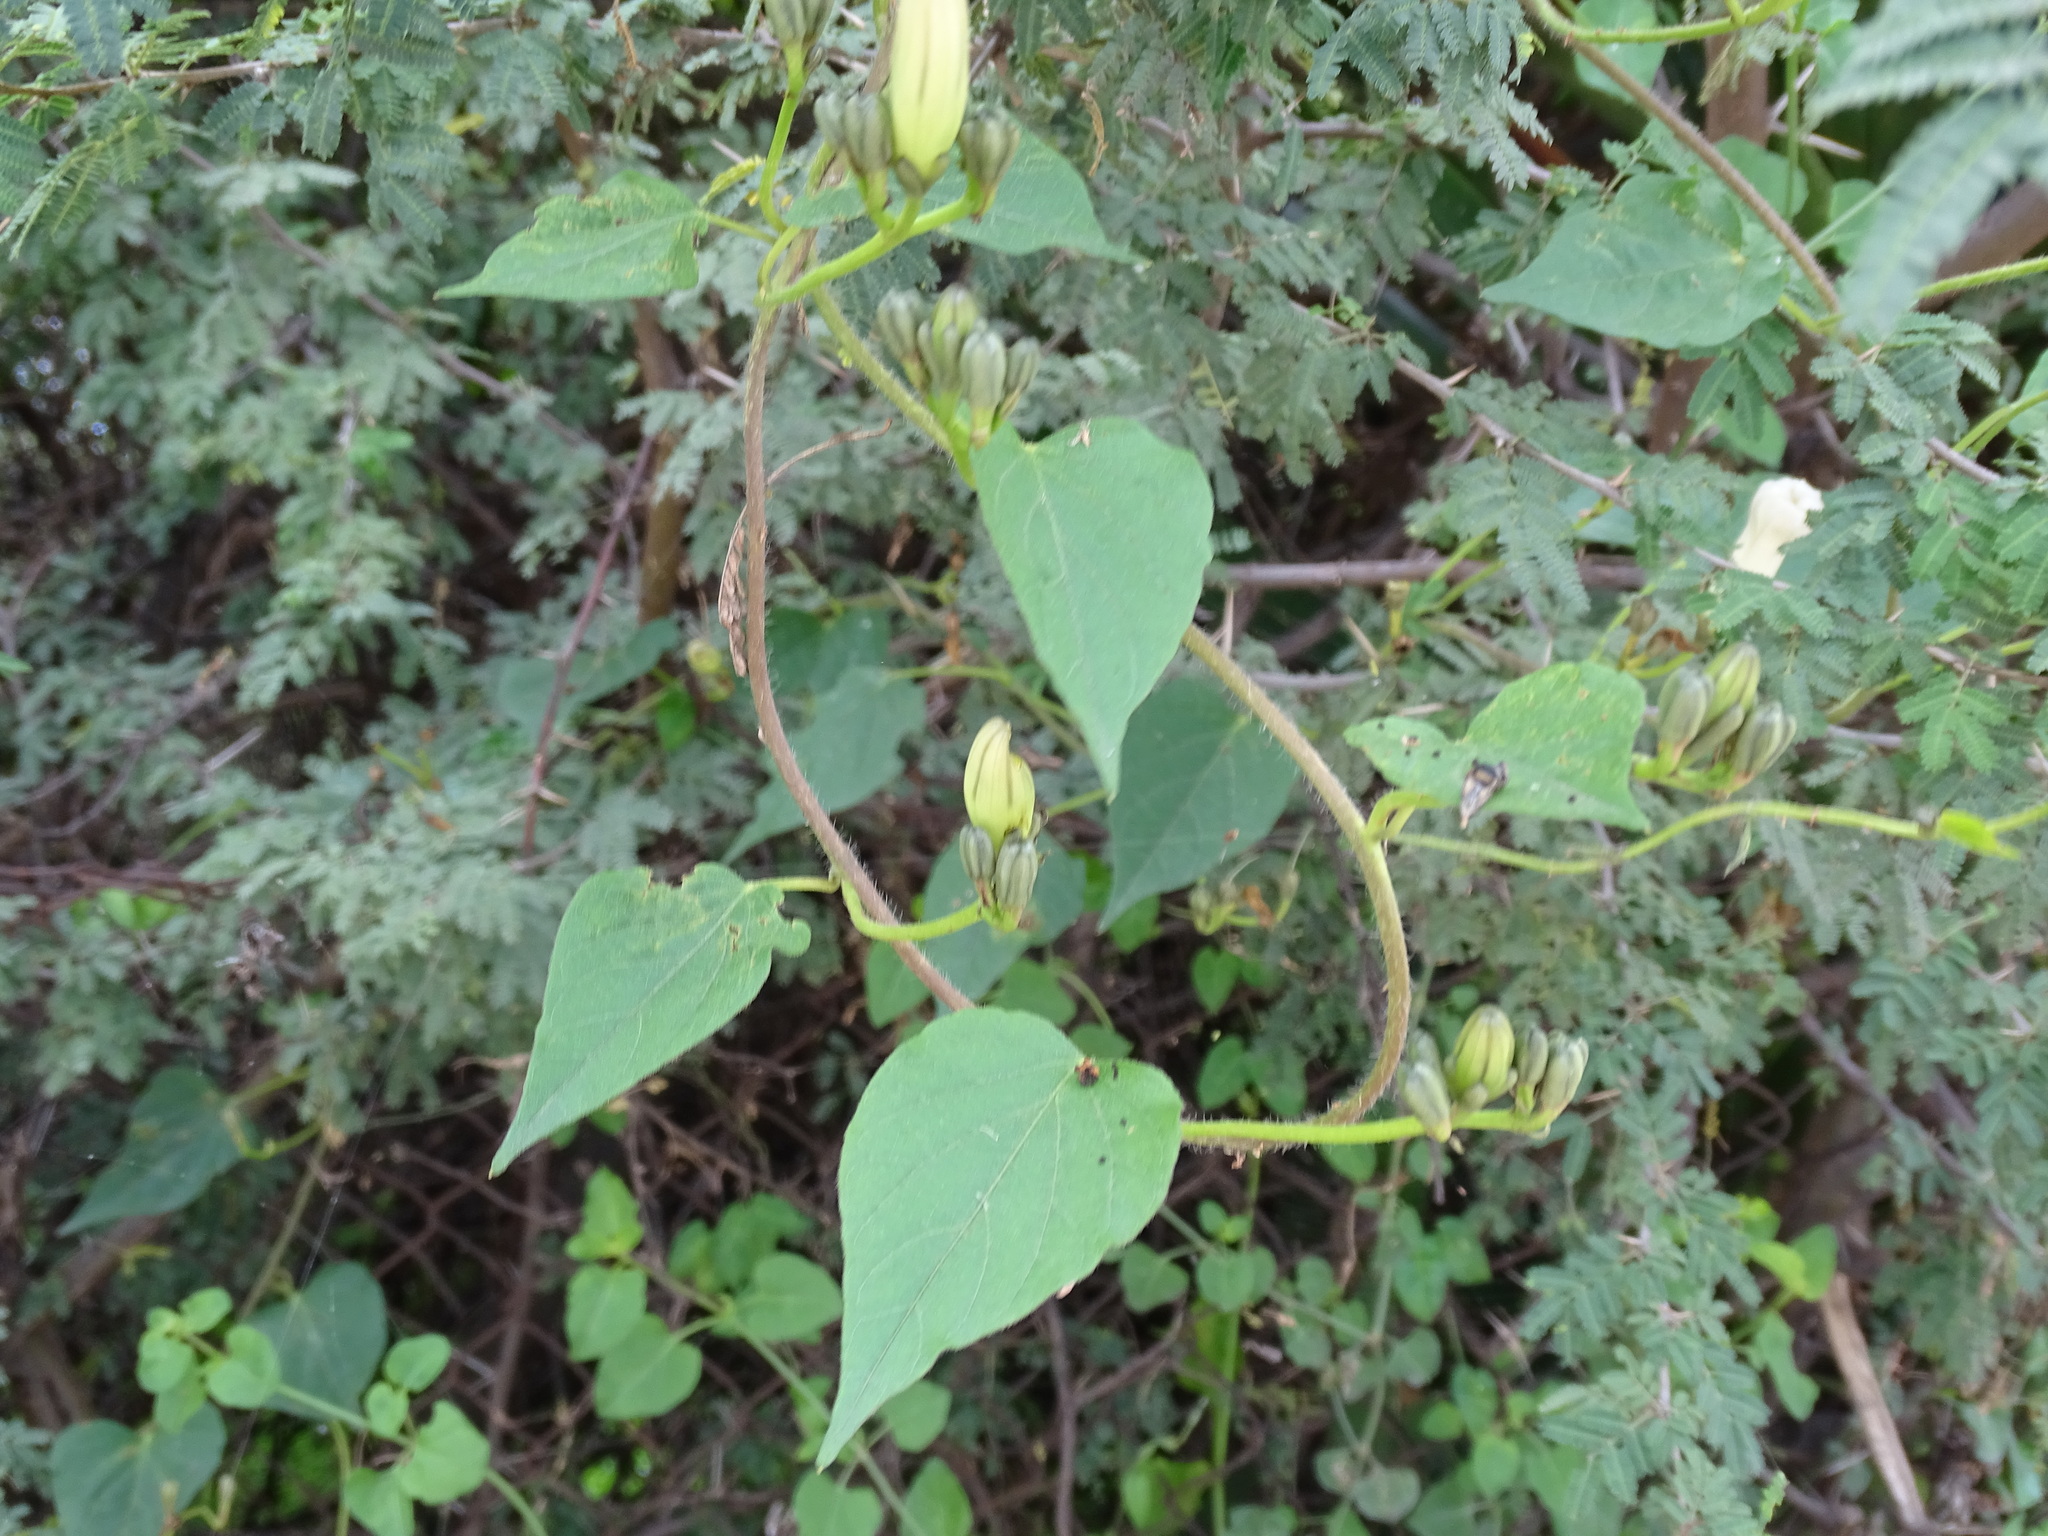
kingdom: Plantae
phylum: Tracheophyta
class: Magnoliopsida
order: Solanales
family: Convolvulaceae
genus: Ipomoea
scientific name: Ipomoea proxima
